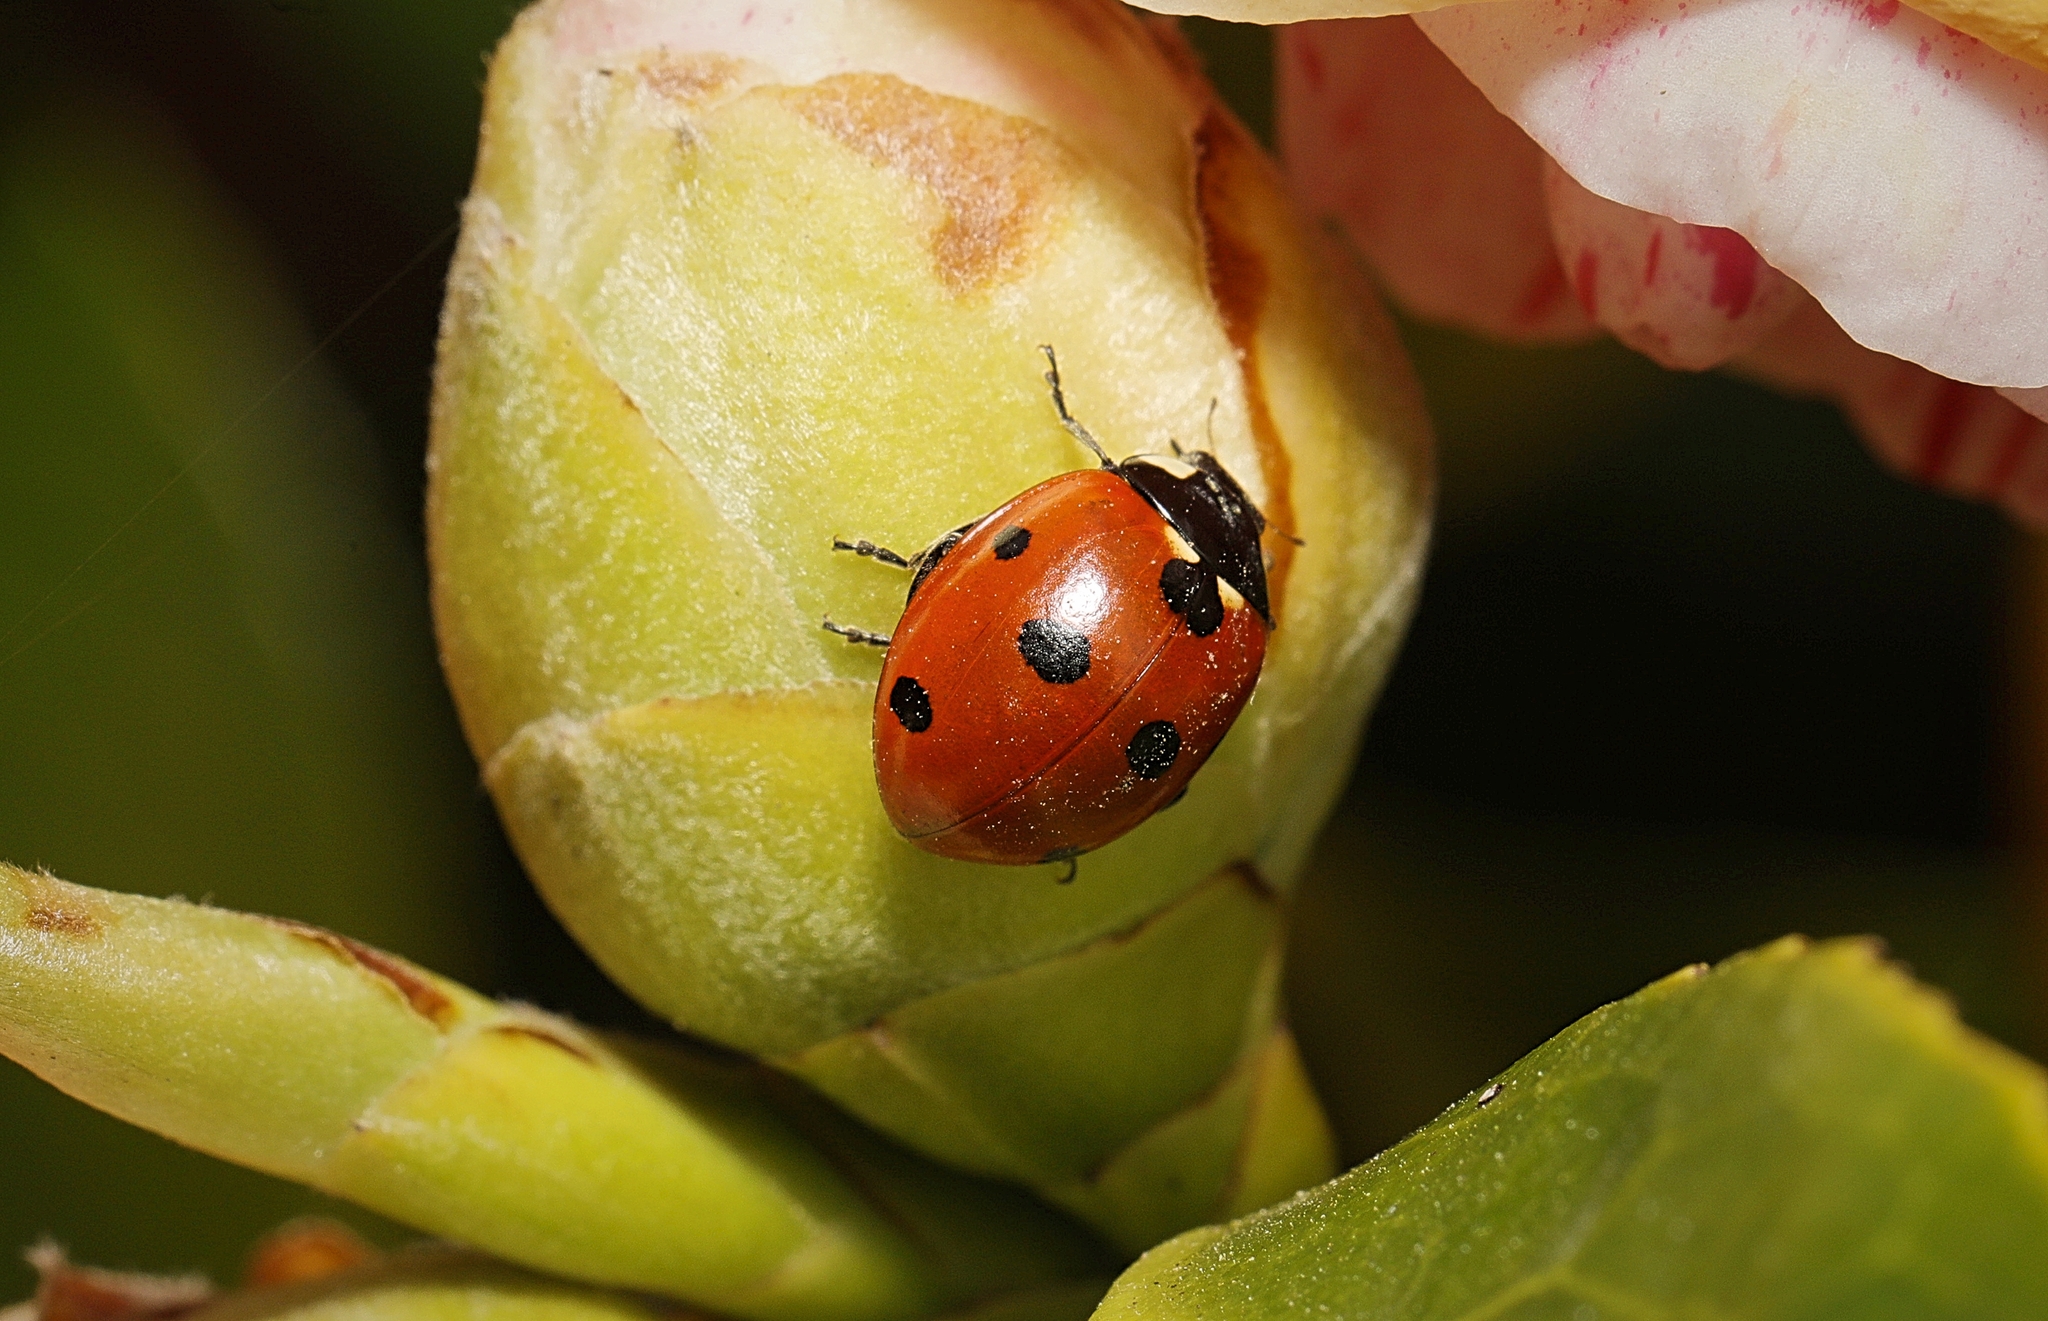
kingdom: Animalia
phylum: Arthropoda
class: Insecta
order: Coleoptera
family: Coccinellidae
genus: Coccinella
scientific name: Coccinella septempunctata
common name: Sevenspotted lady beetle
